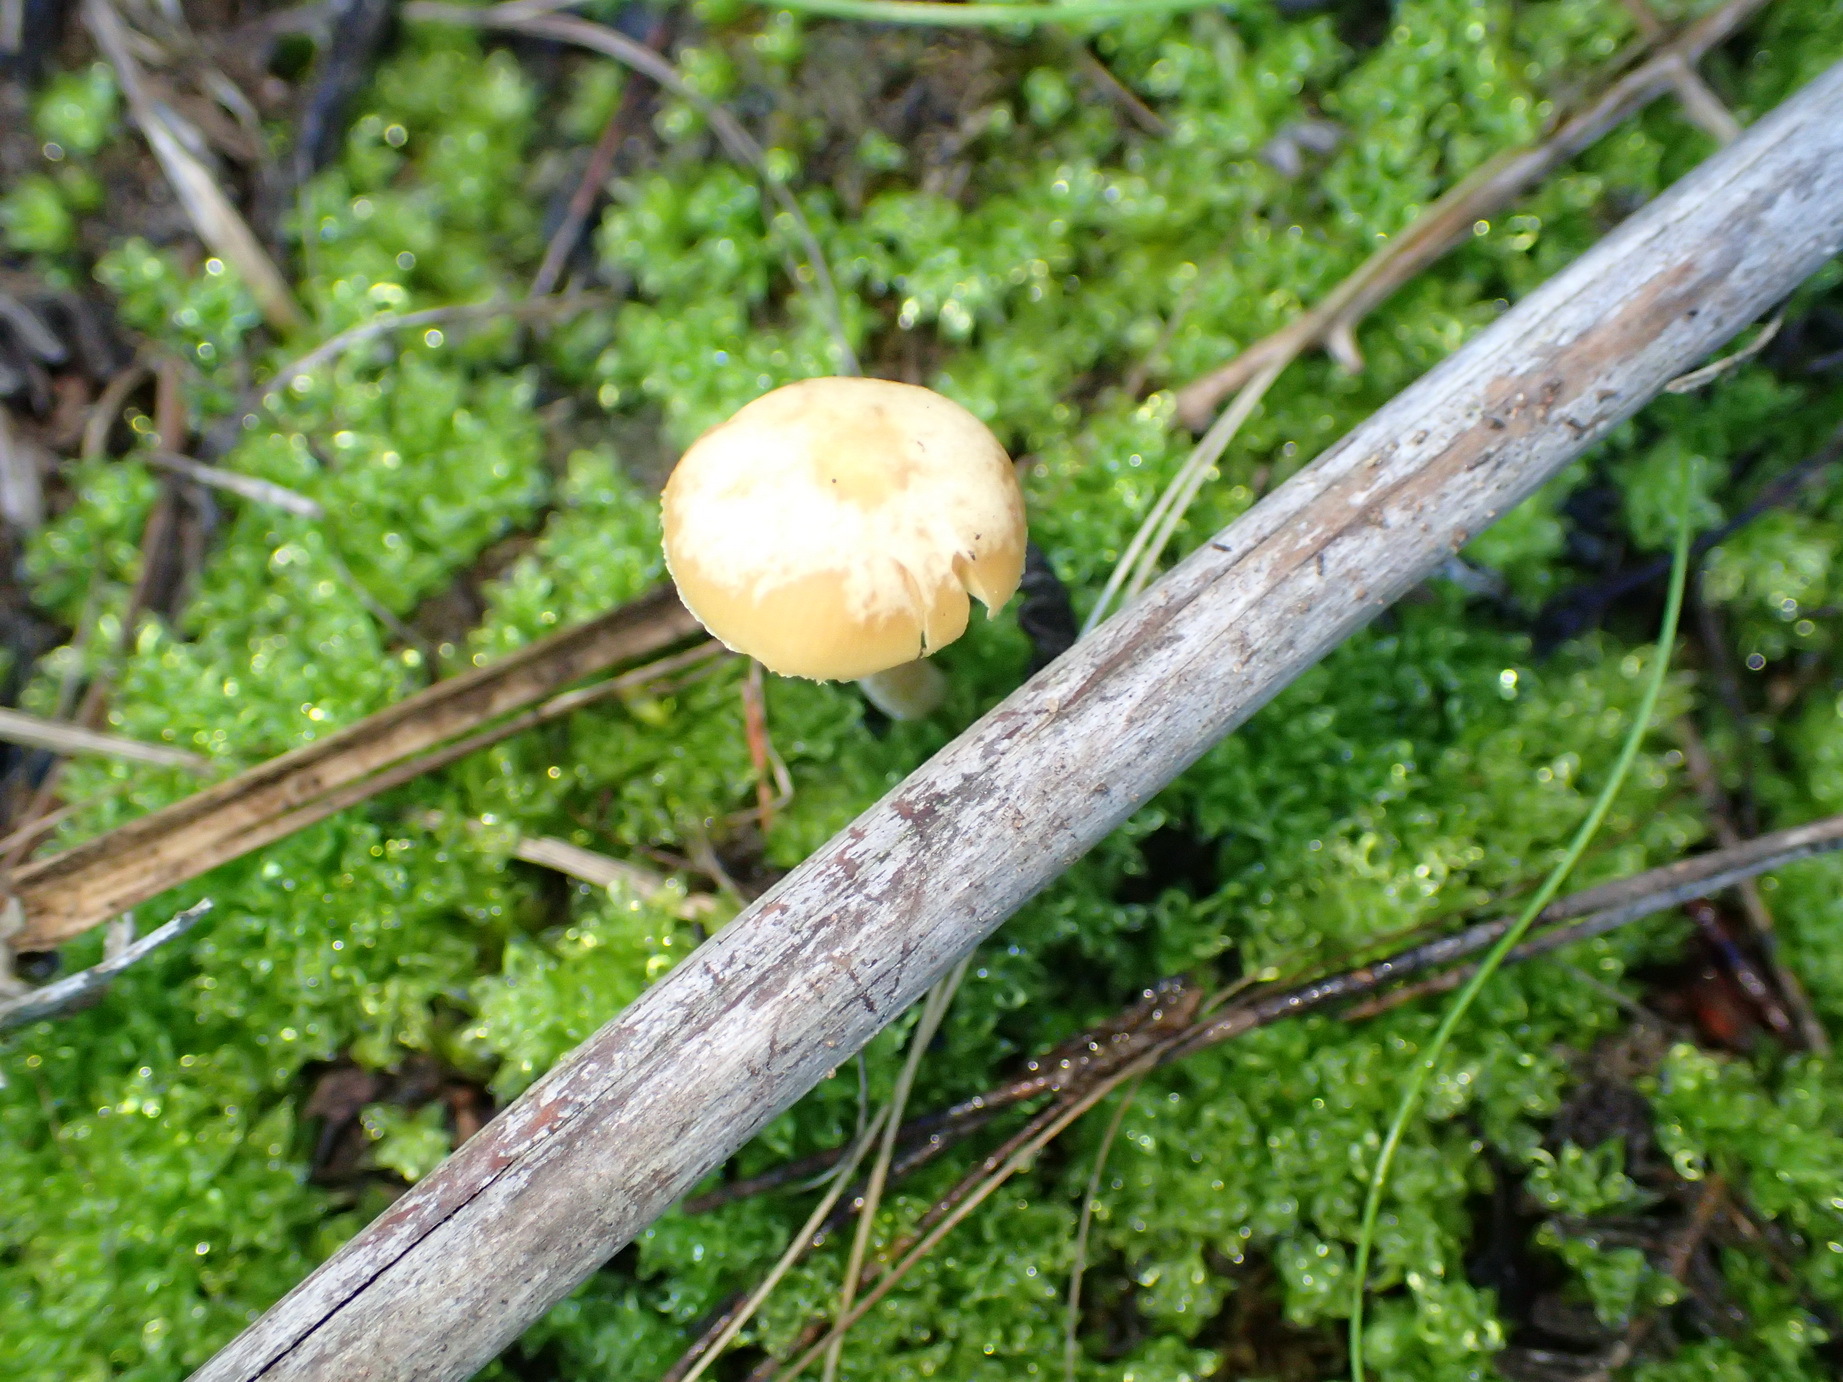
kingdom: Plantae
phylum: Bryophyta
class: Bryopsida
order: Bryales
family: Bryaceae
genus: Rosulabryum
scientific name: Rosulabryum canariense
